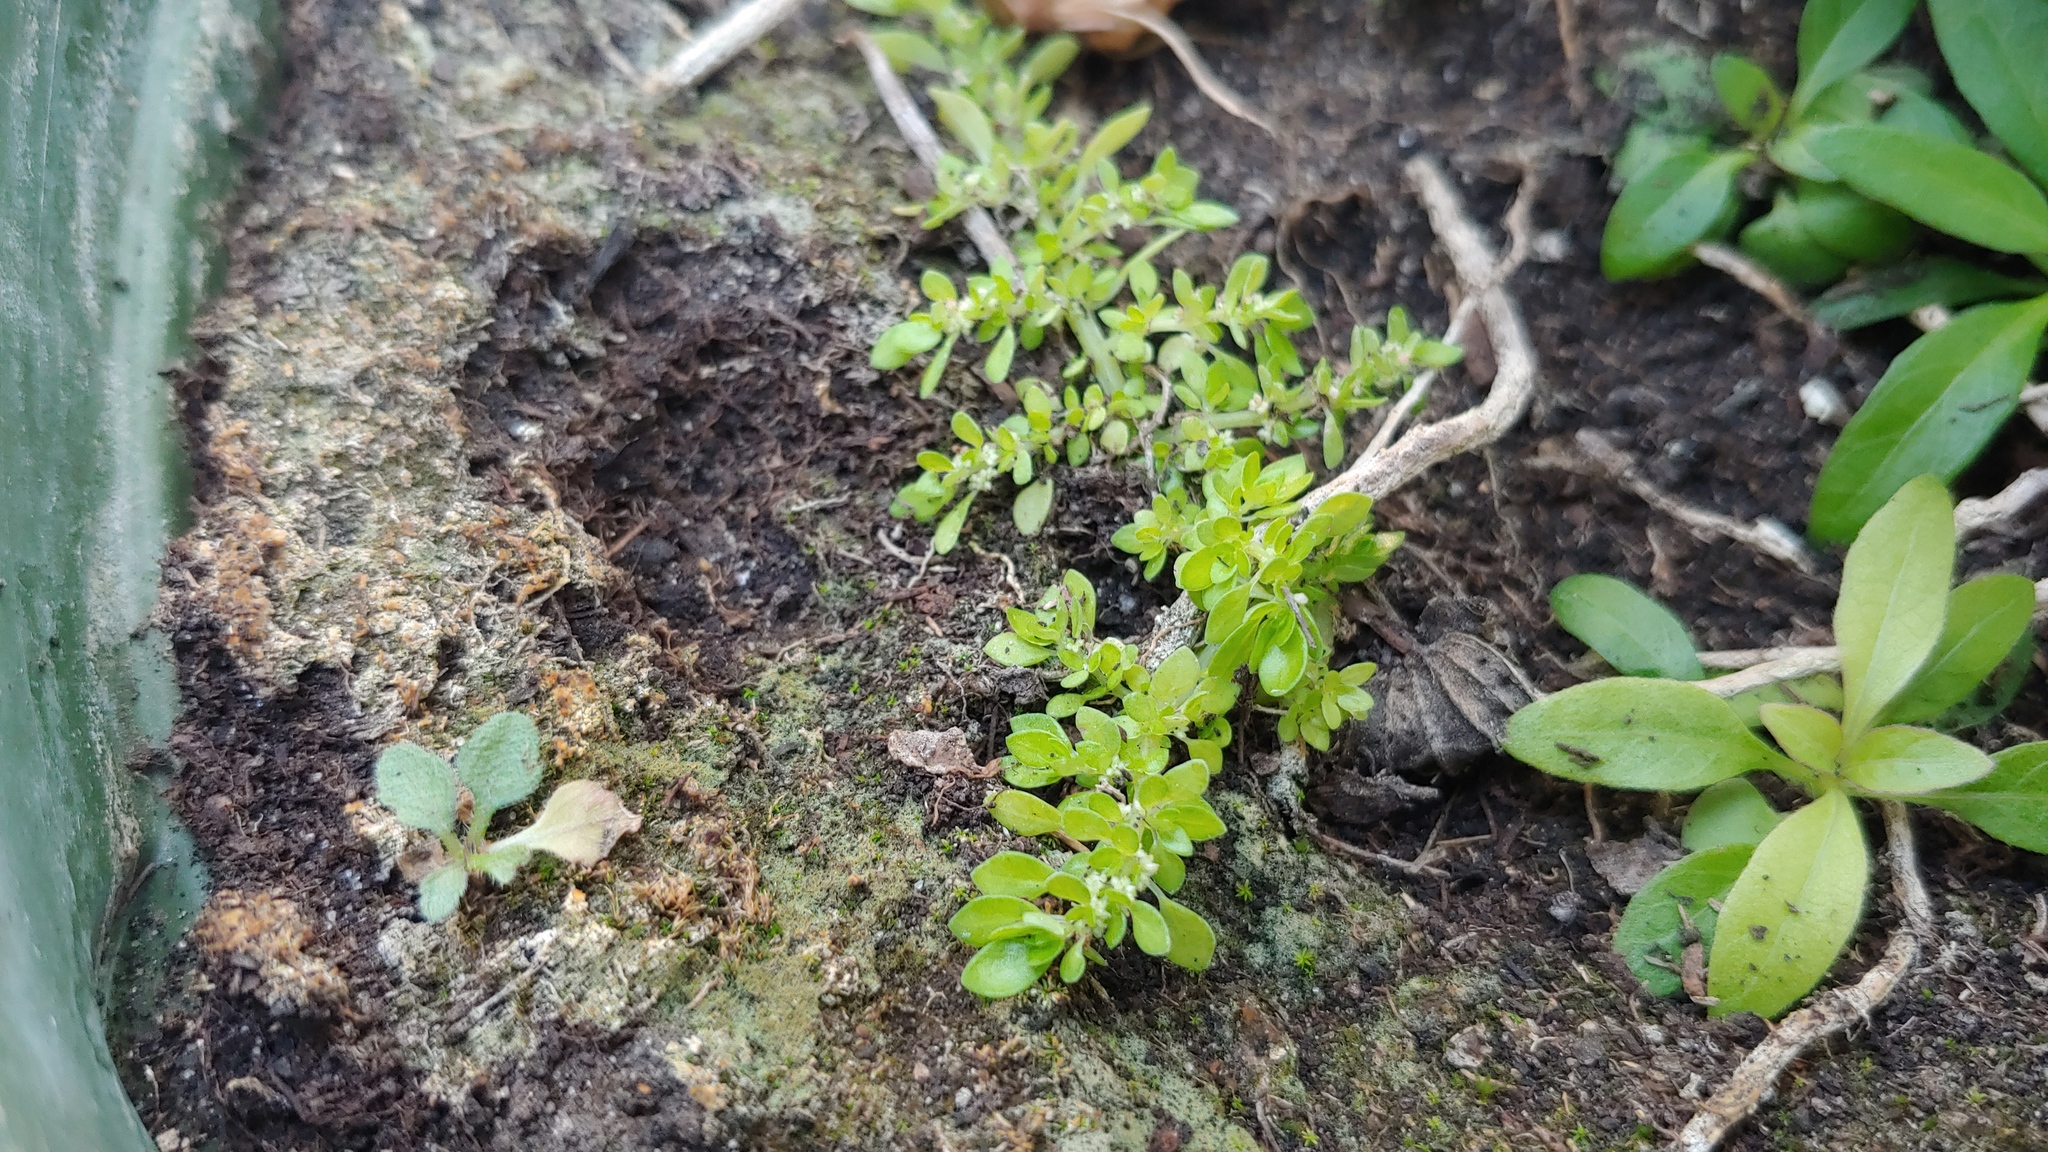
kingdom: Plantae
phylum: Tracheophyta
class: Magnoliopsida
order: Rosales
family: Urticaceae
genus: Pilea
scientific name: Pilea microphylla
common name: Artillery-plant
